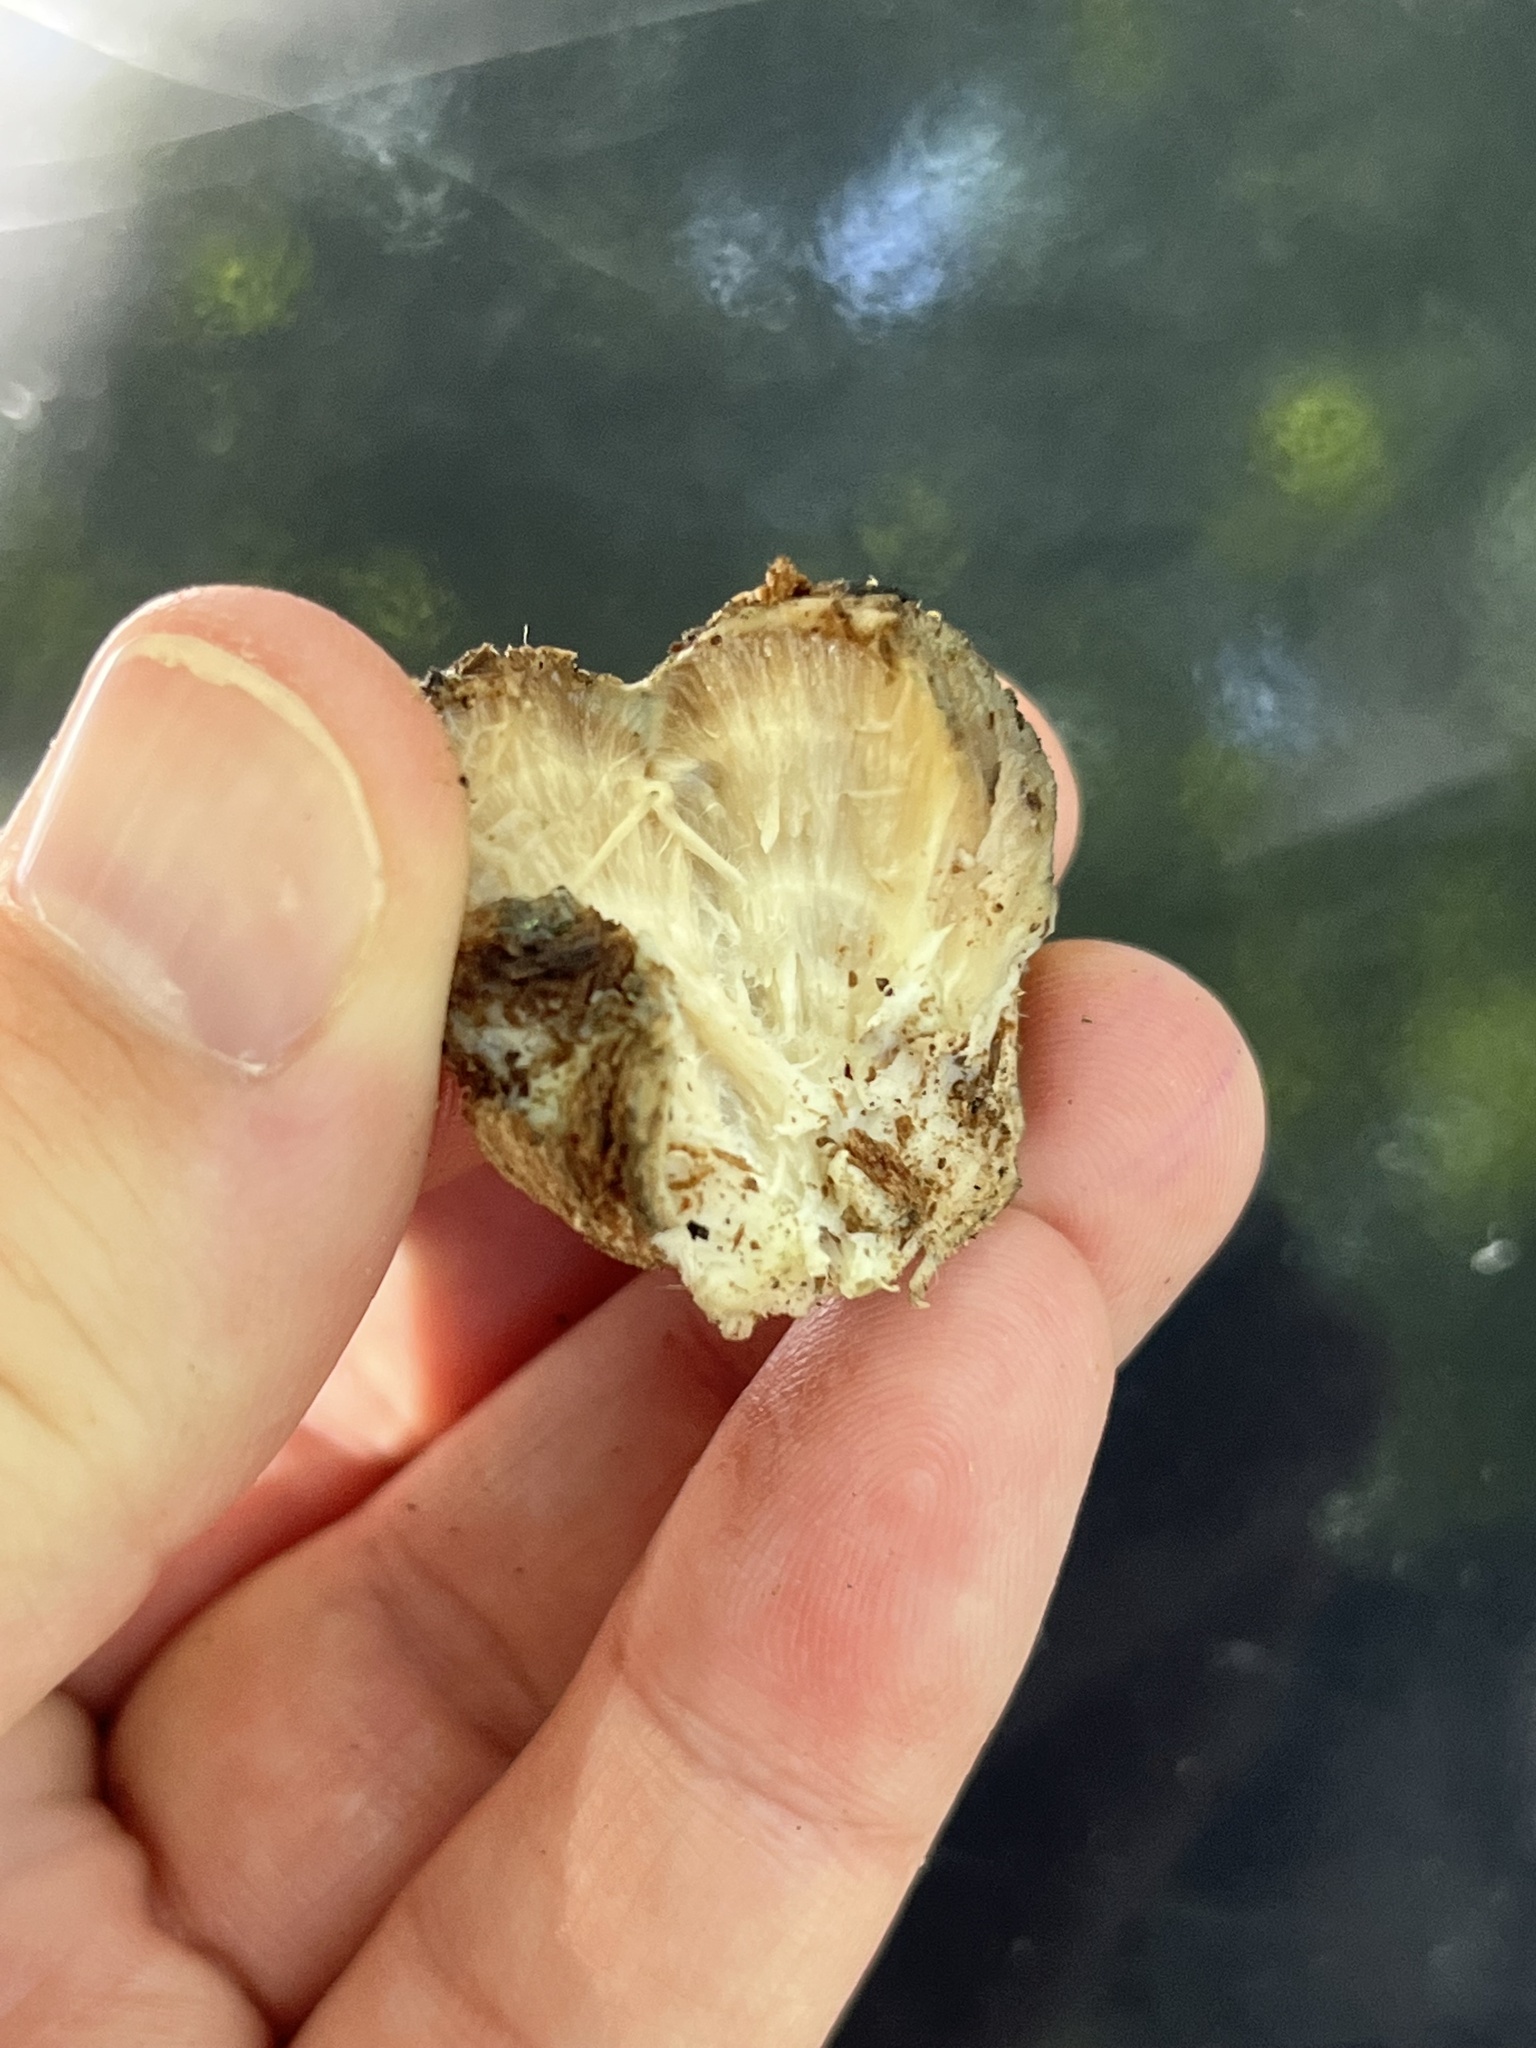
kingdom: Fungi
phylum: Basidiomycota
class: Agaricomycetes
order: Polyporales
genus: Fuscopostia
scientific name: Fuscopostia fragilis
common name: Brown-staining cheese polypore
